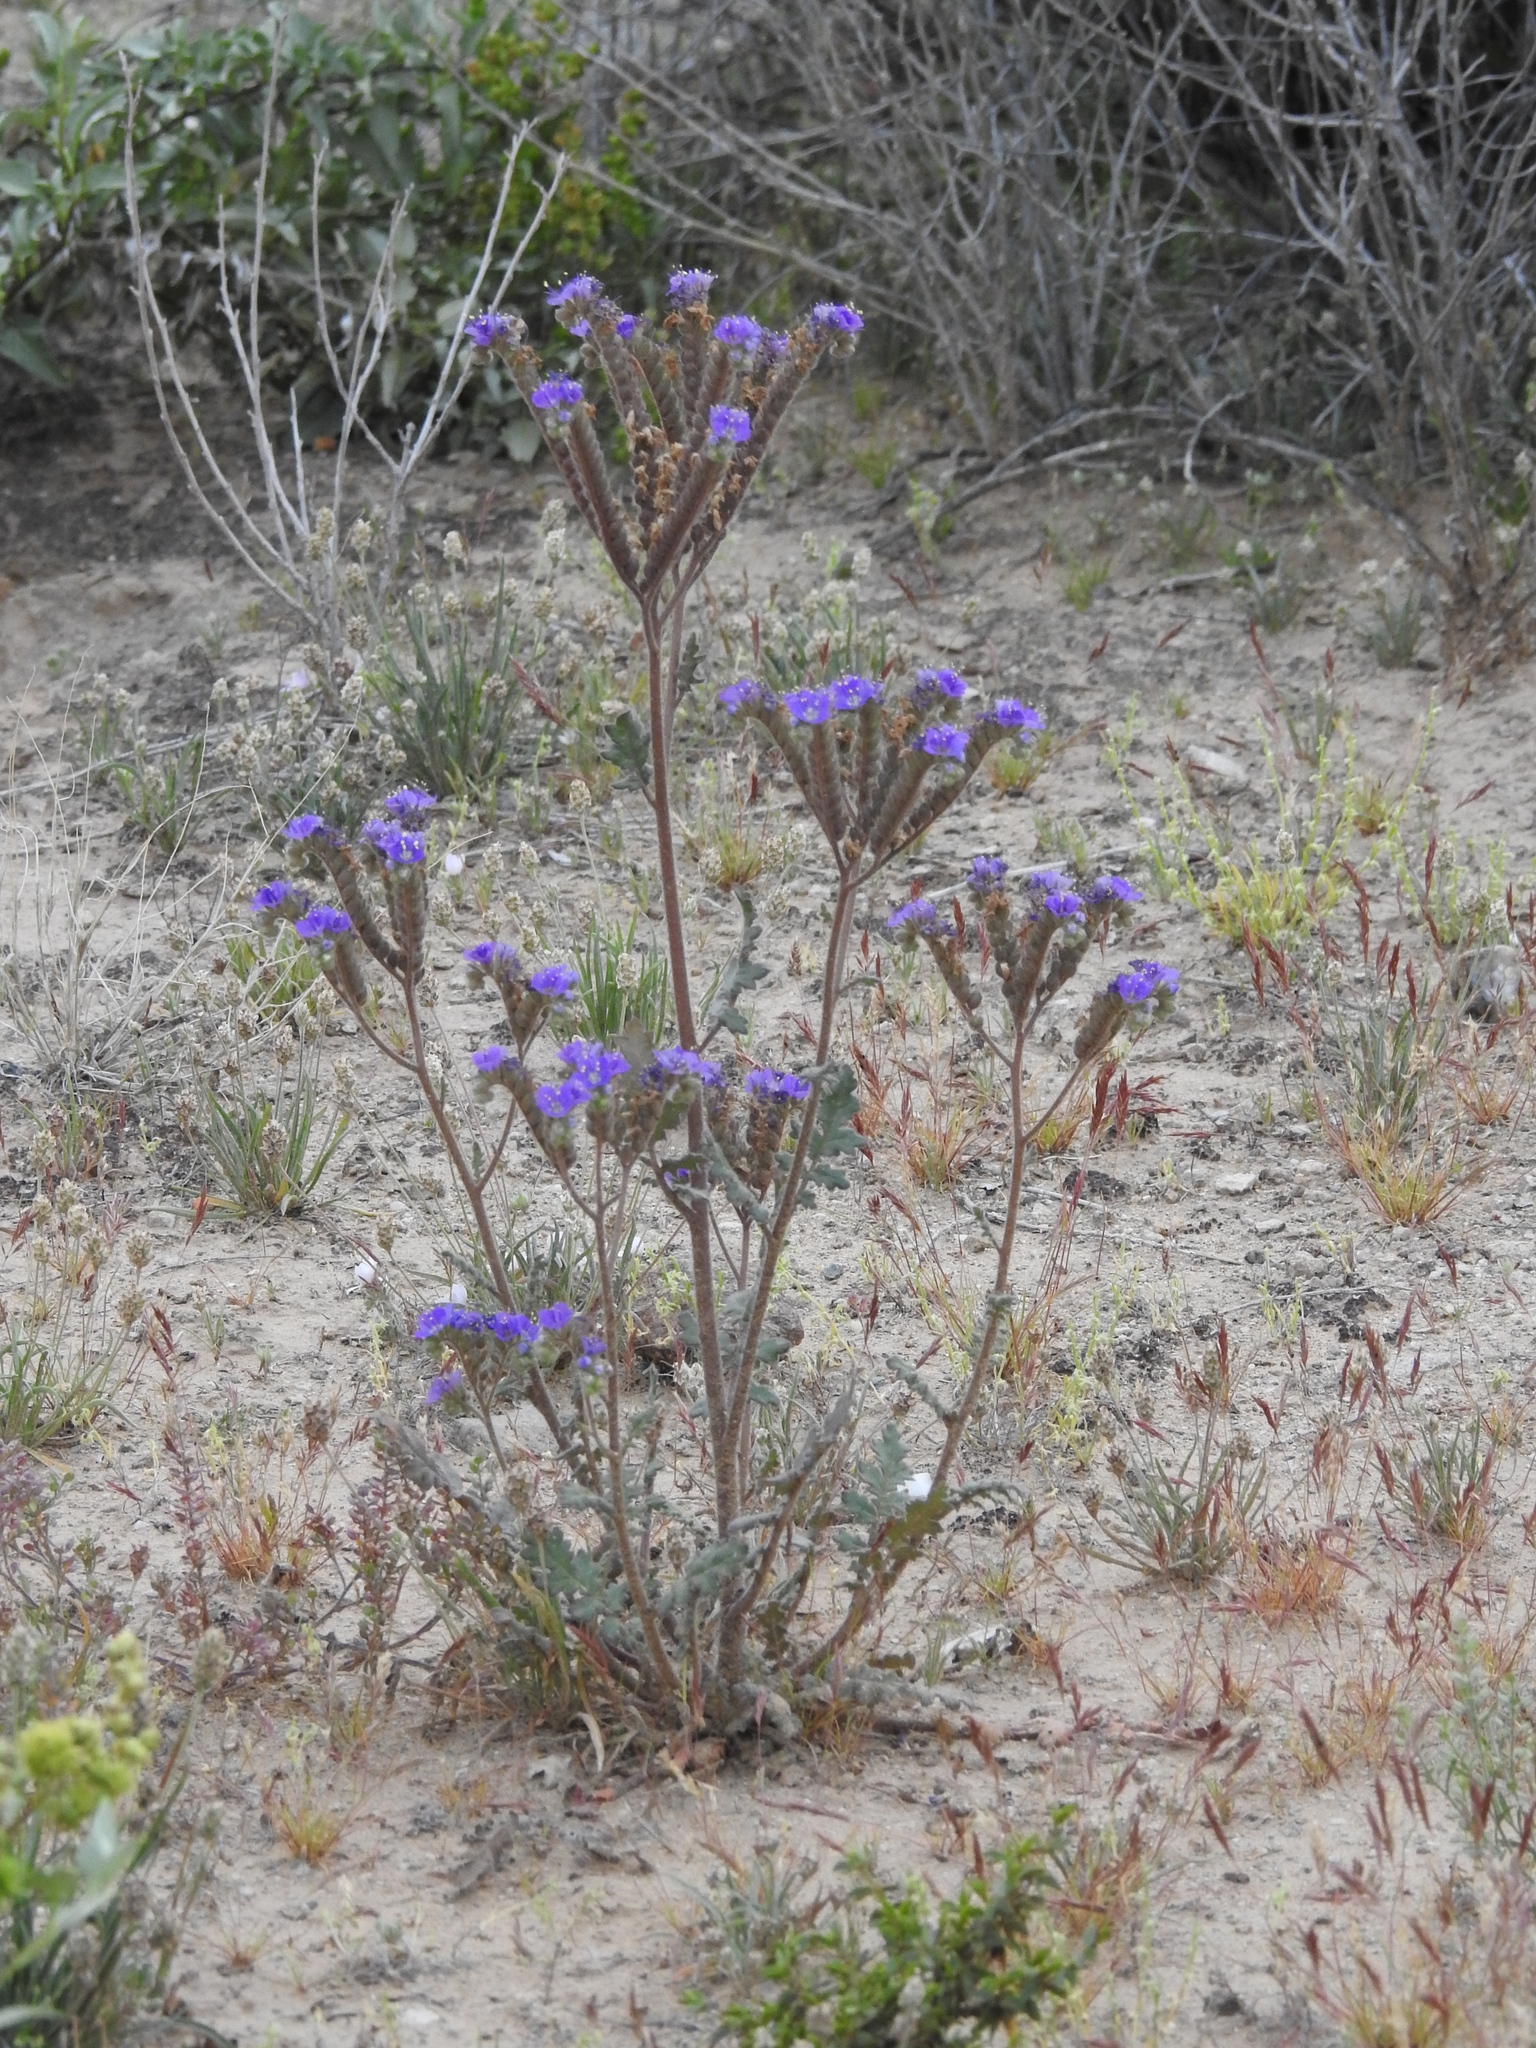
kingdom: Plantae
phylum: Tracheophyta
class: Magnoliopsida
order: Boraginales
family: Hydrophyllaceae
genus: Phacelia
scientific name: Phacelia crenulata
